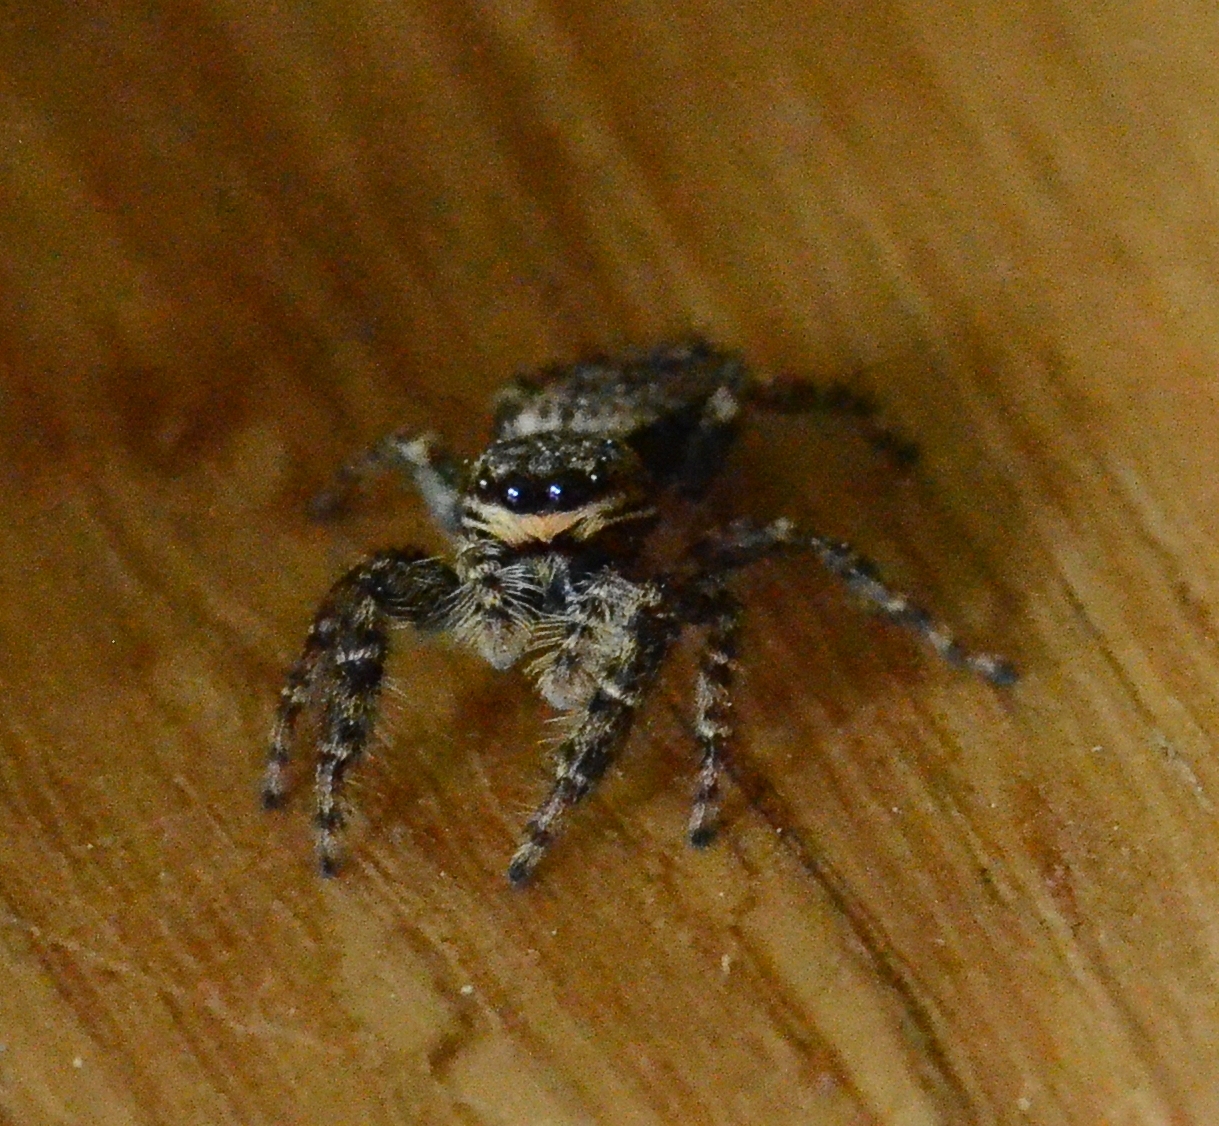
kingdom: Animalia
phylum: Arthropoda
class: Arachnida
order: Araneae
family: Salticidae
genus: Marpissa
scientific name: Marpissa muscosa
